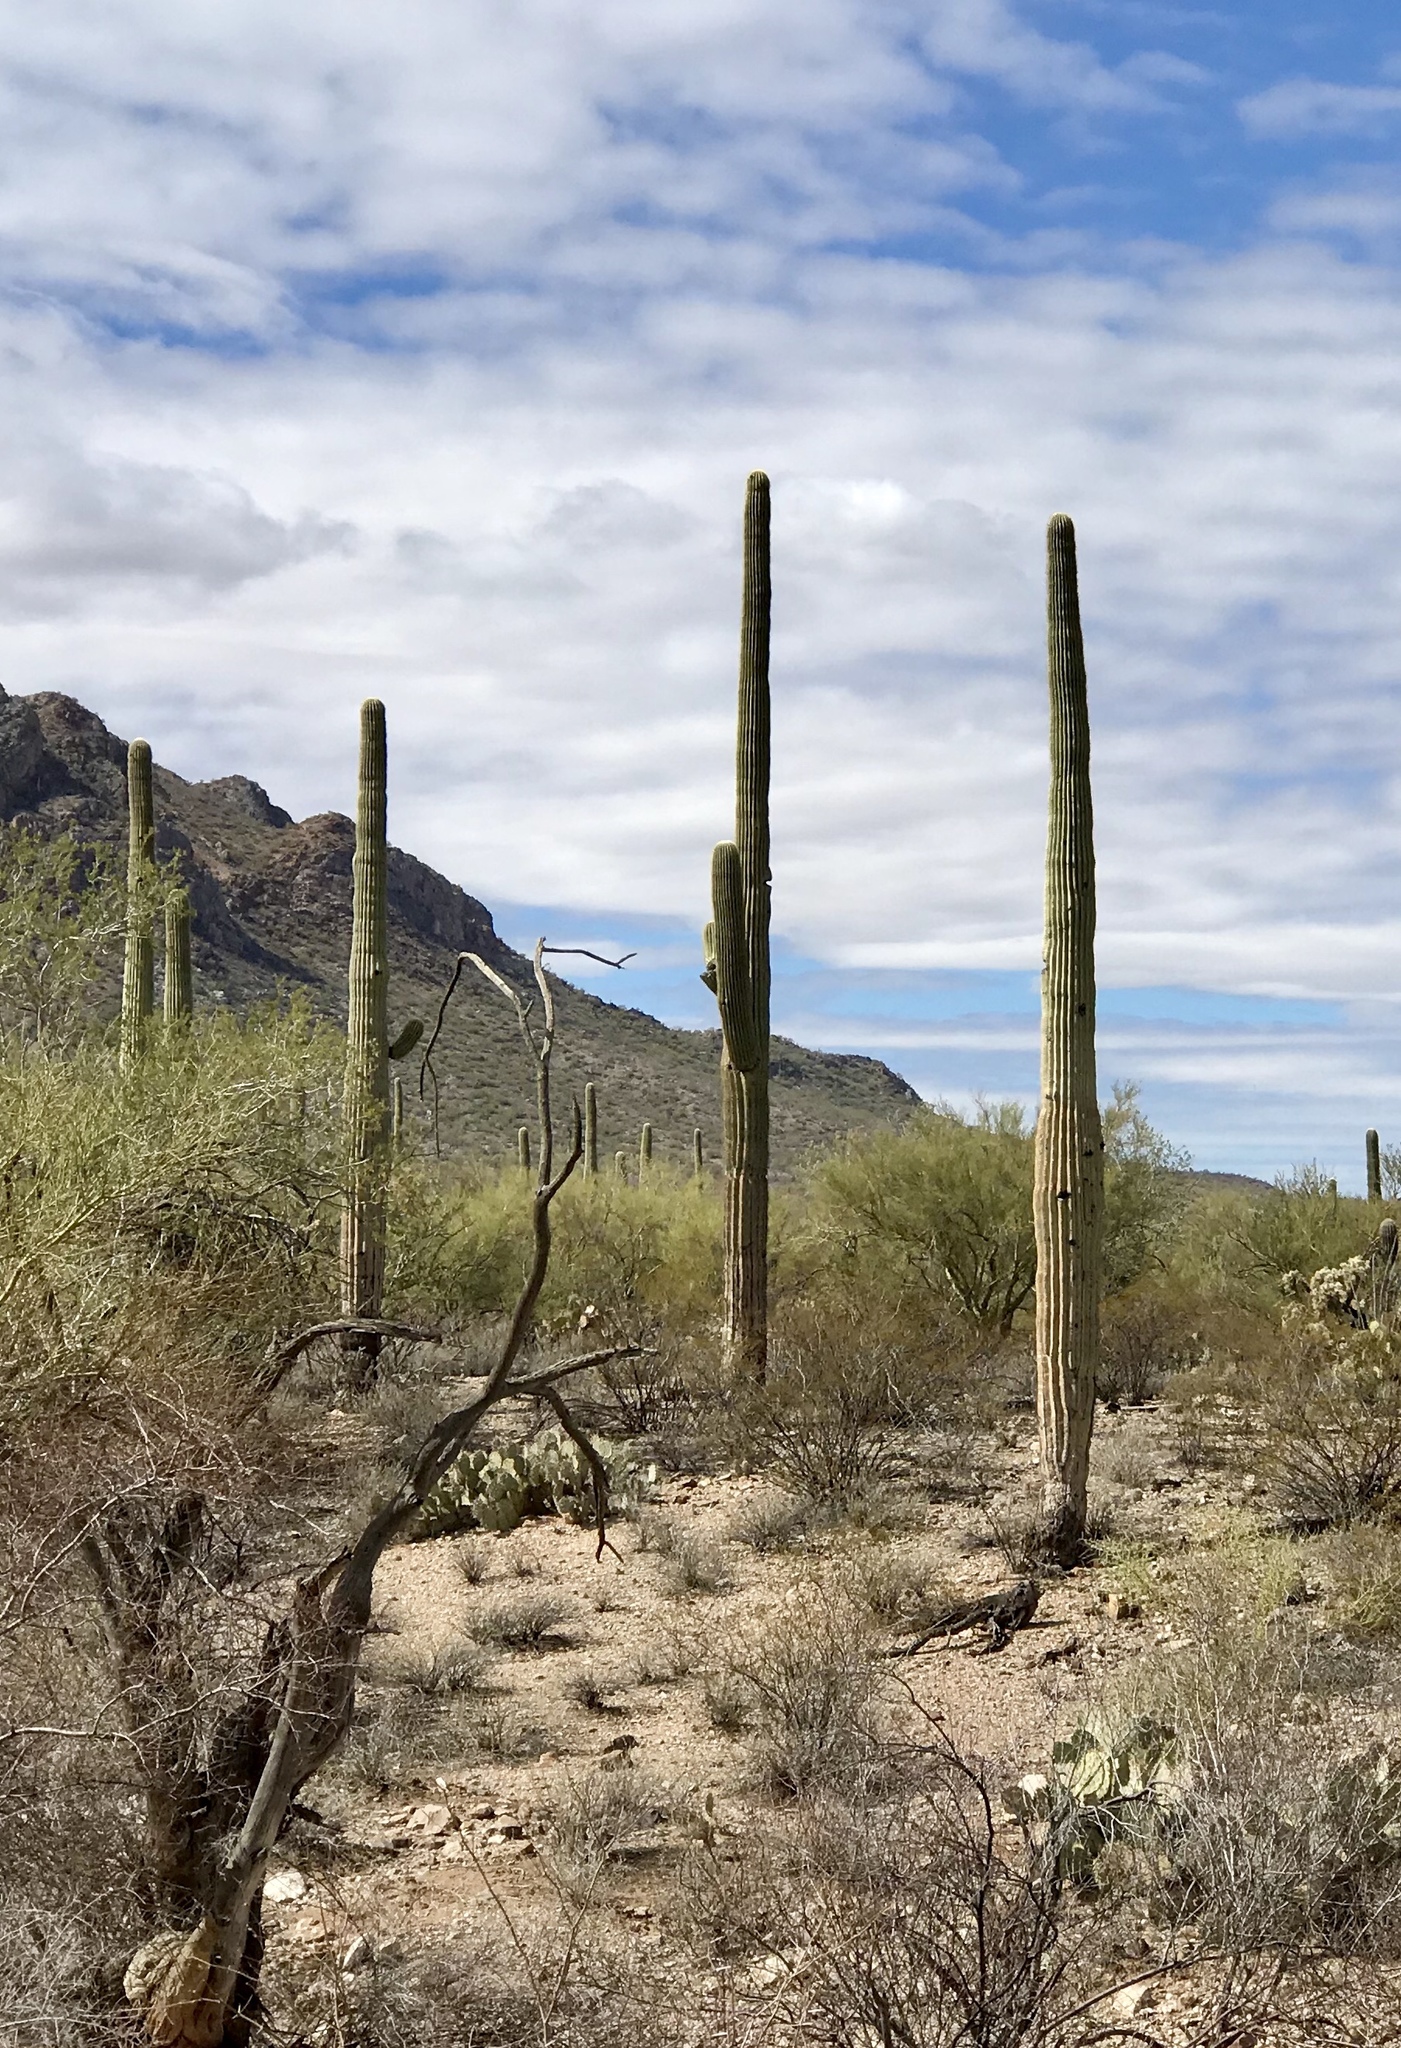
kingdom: Plantae
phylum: Tracheophyta
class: Magnoliopsida
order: Caryophyllales
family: Cactaceae
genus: Carnegiea
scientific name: Carnegiea gigantea
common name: Saguaro
